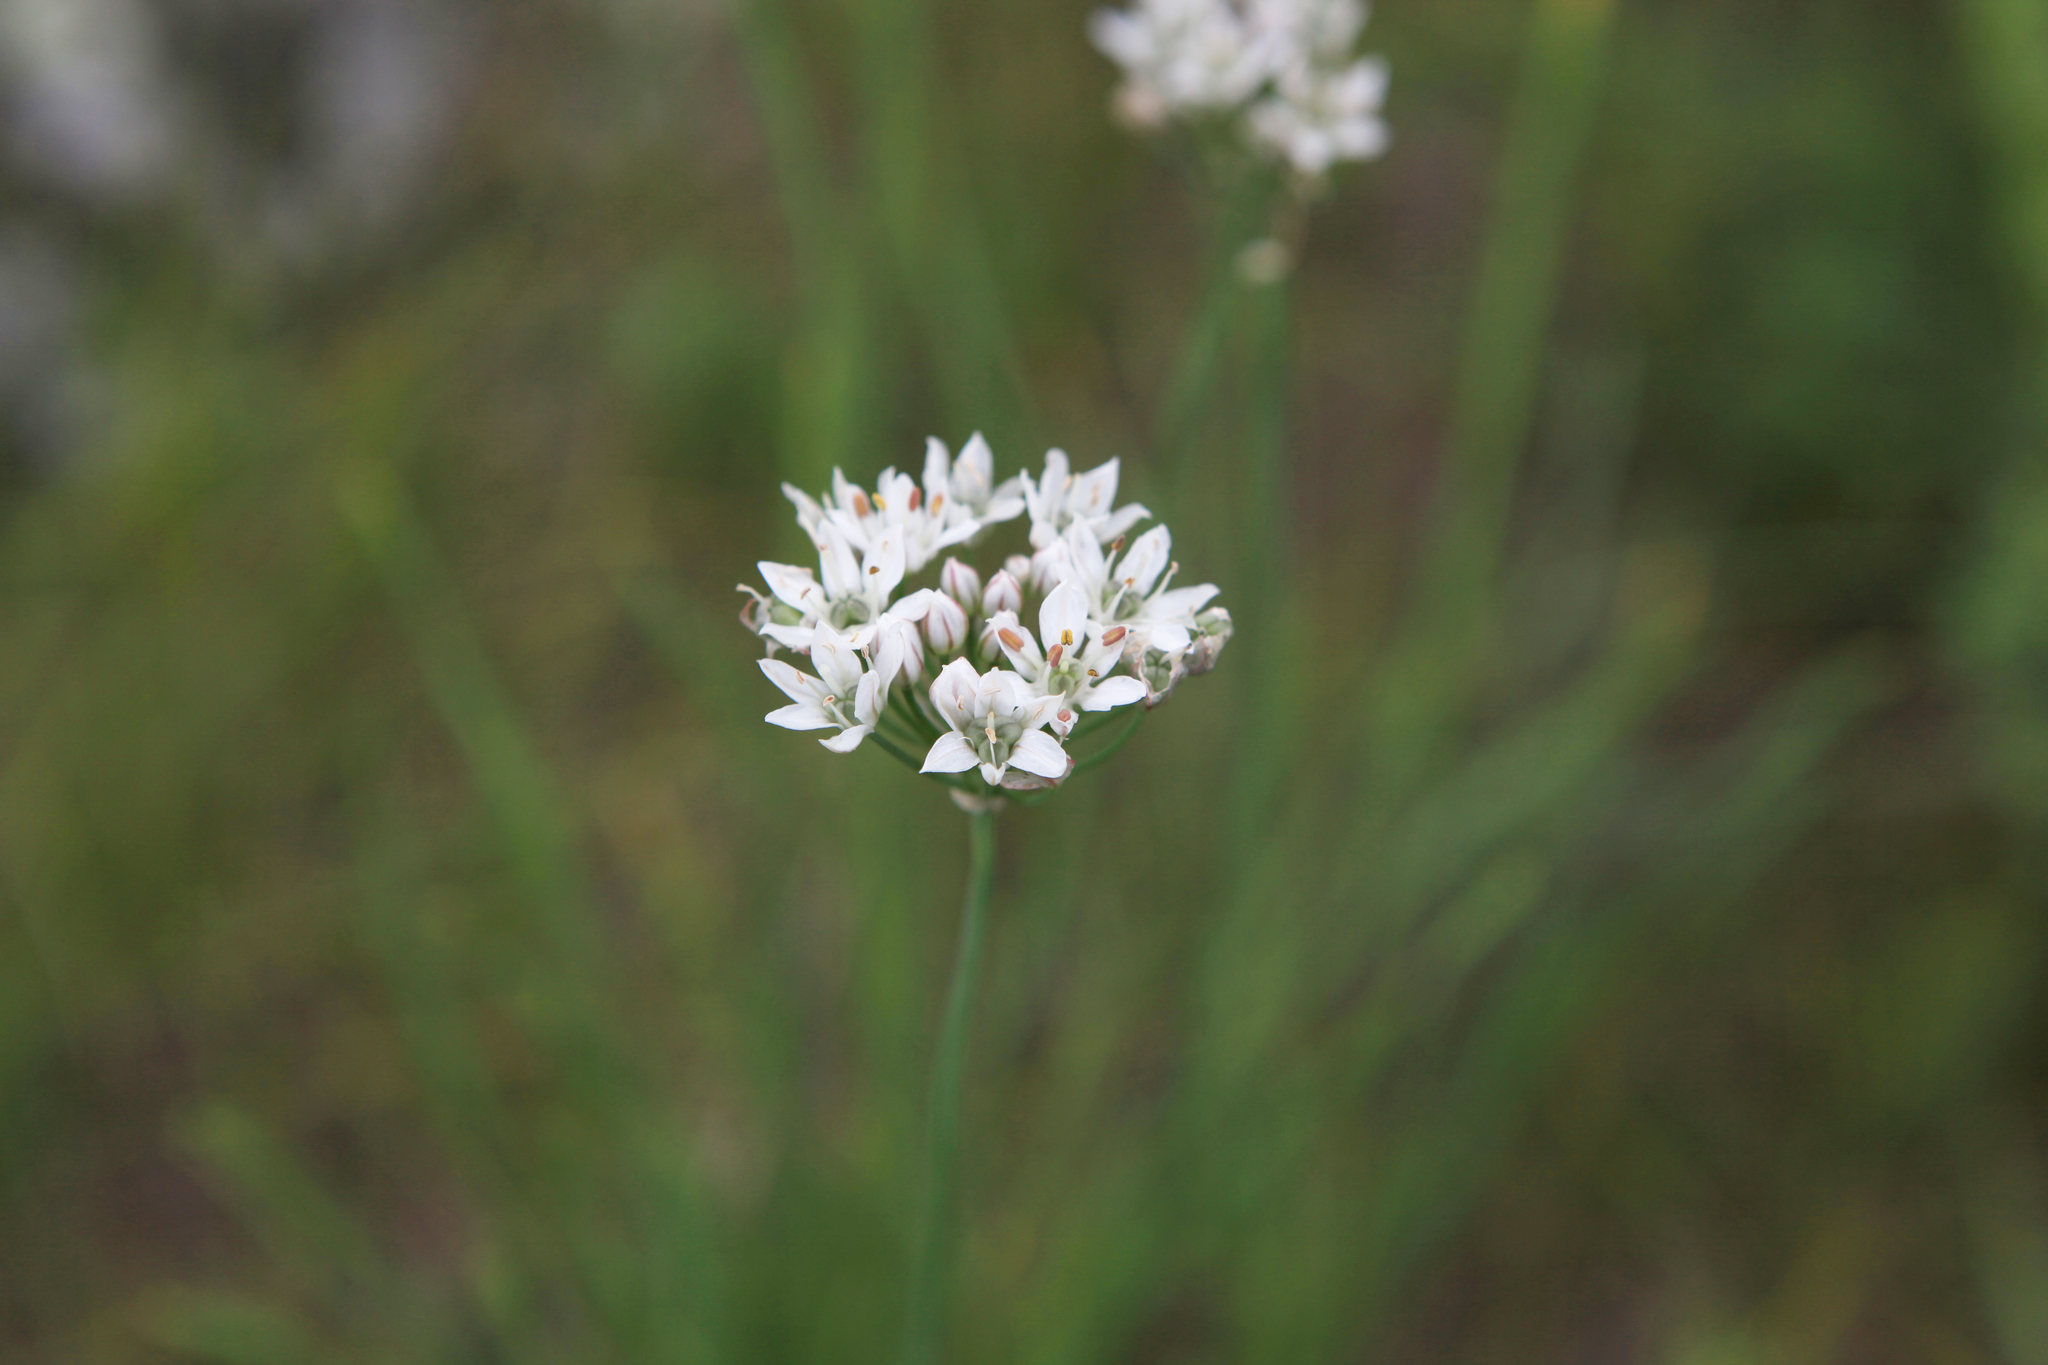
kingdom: Plantae
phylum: Tracheophyta
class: Liliopsida
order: Asparagales
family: Amaryllidaceae
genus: Allium
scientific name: Allium ramosum
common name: Fragrant garlic
